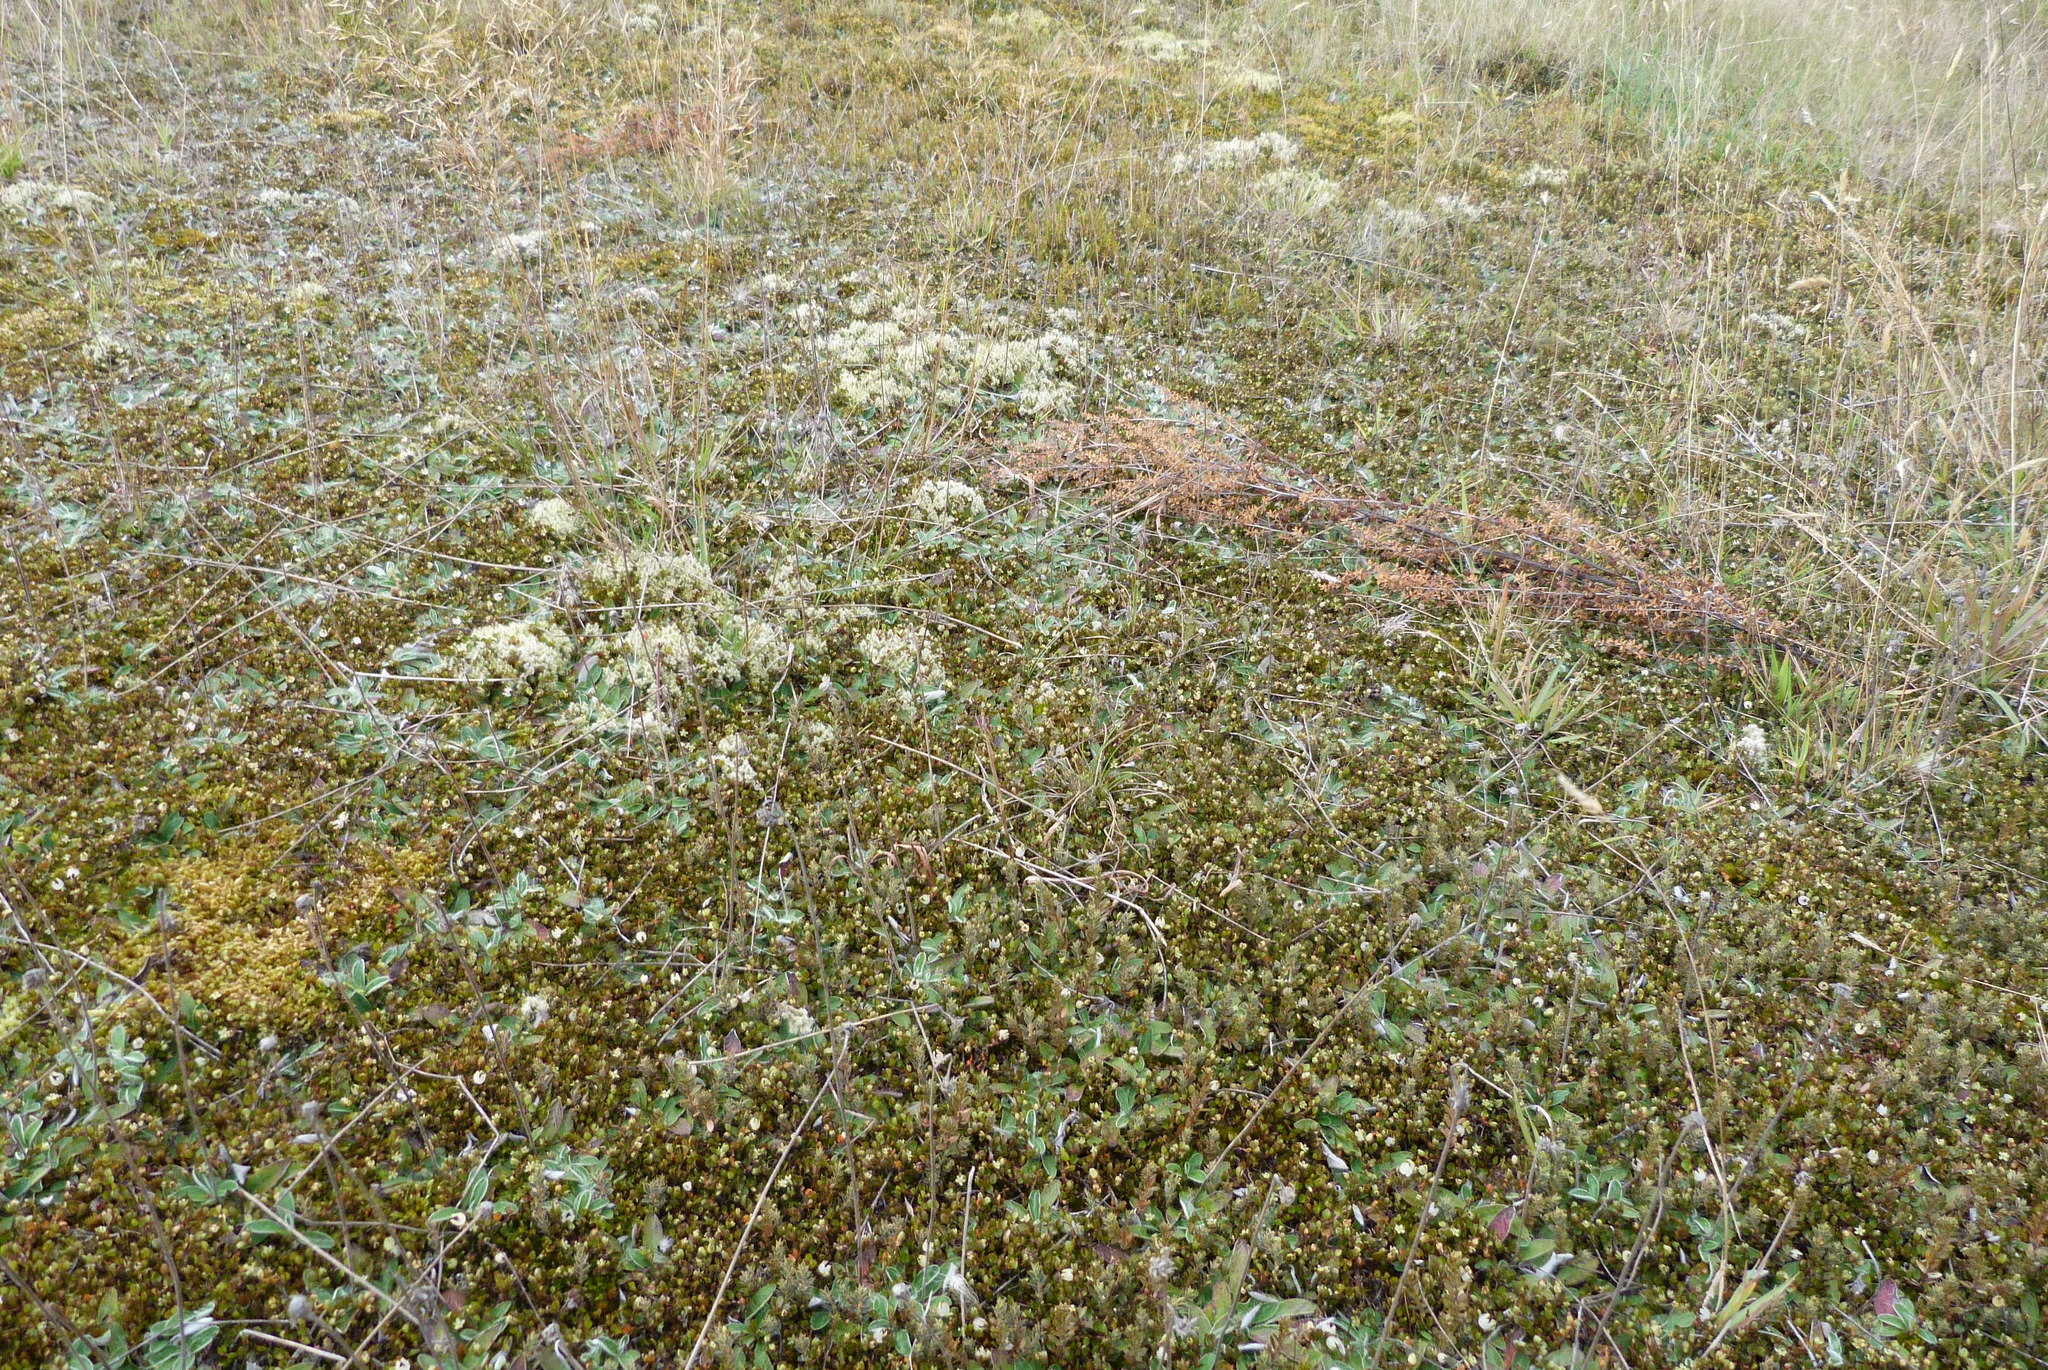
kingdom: Plantae
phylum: Bryophyta
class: Bryopsida
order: Grimmiales
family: Grimmiaceae
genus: Racomitrium
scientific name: Racomitrium lanuginosum
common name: Hoary rock moss
